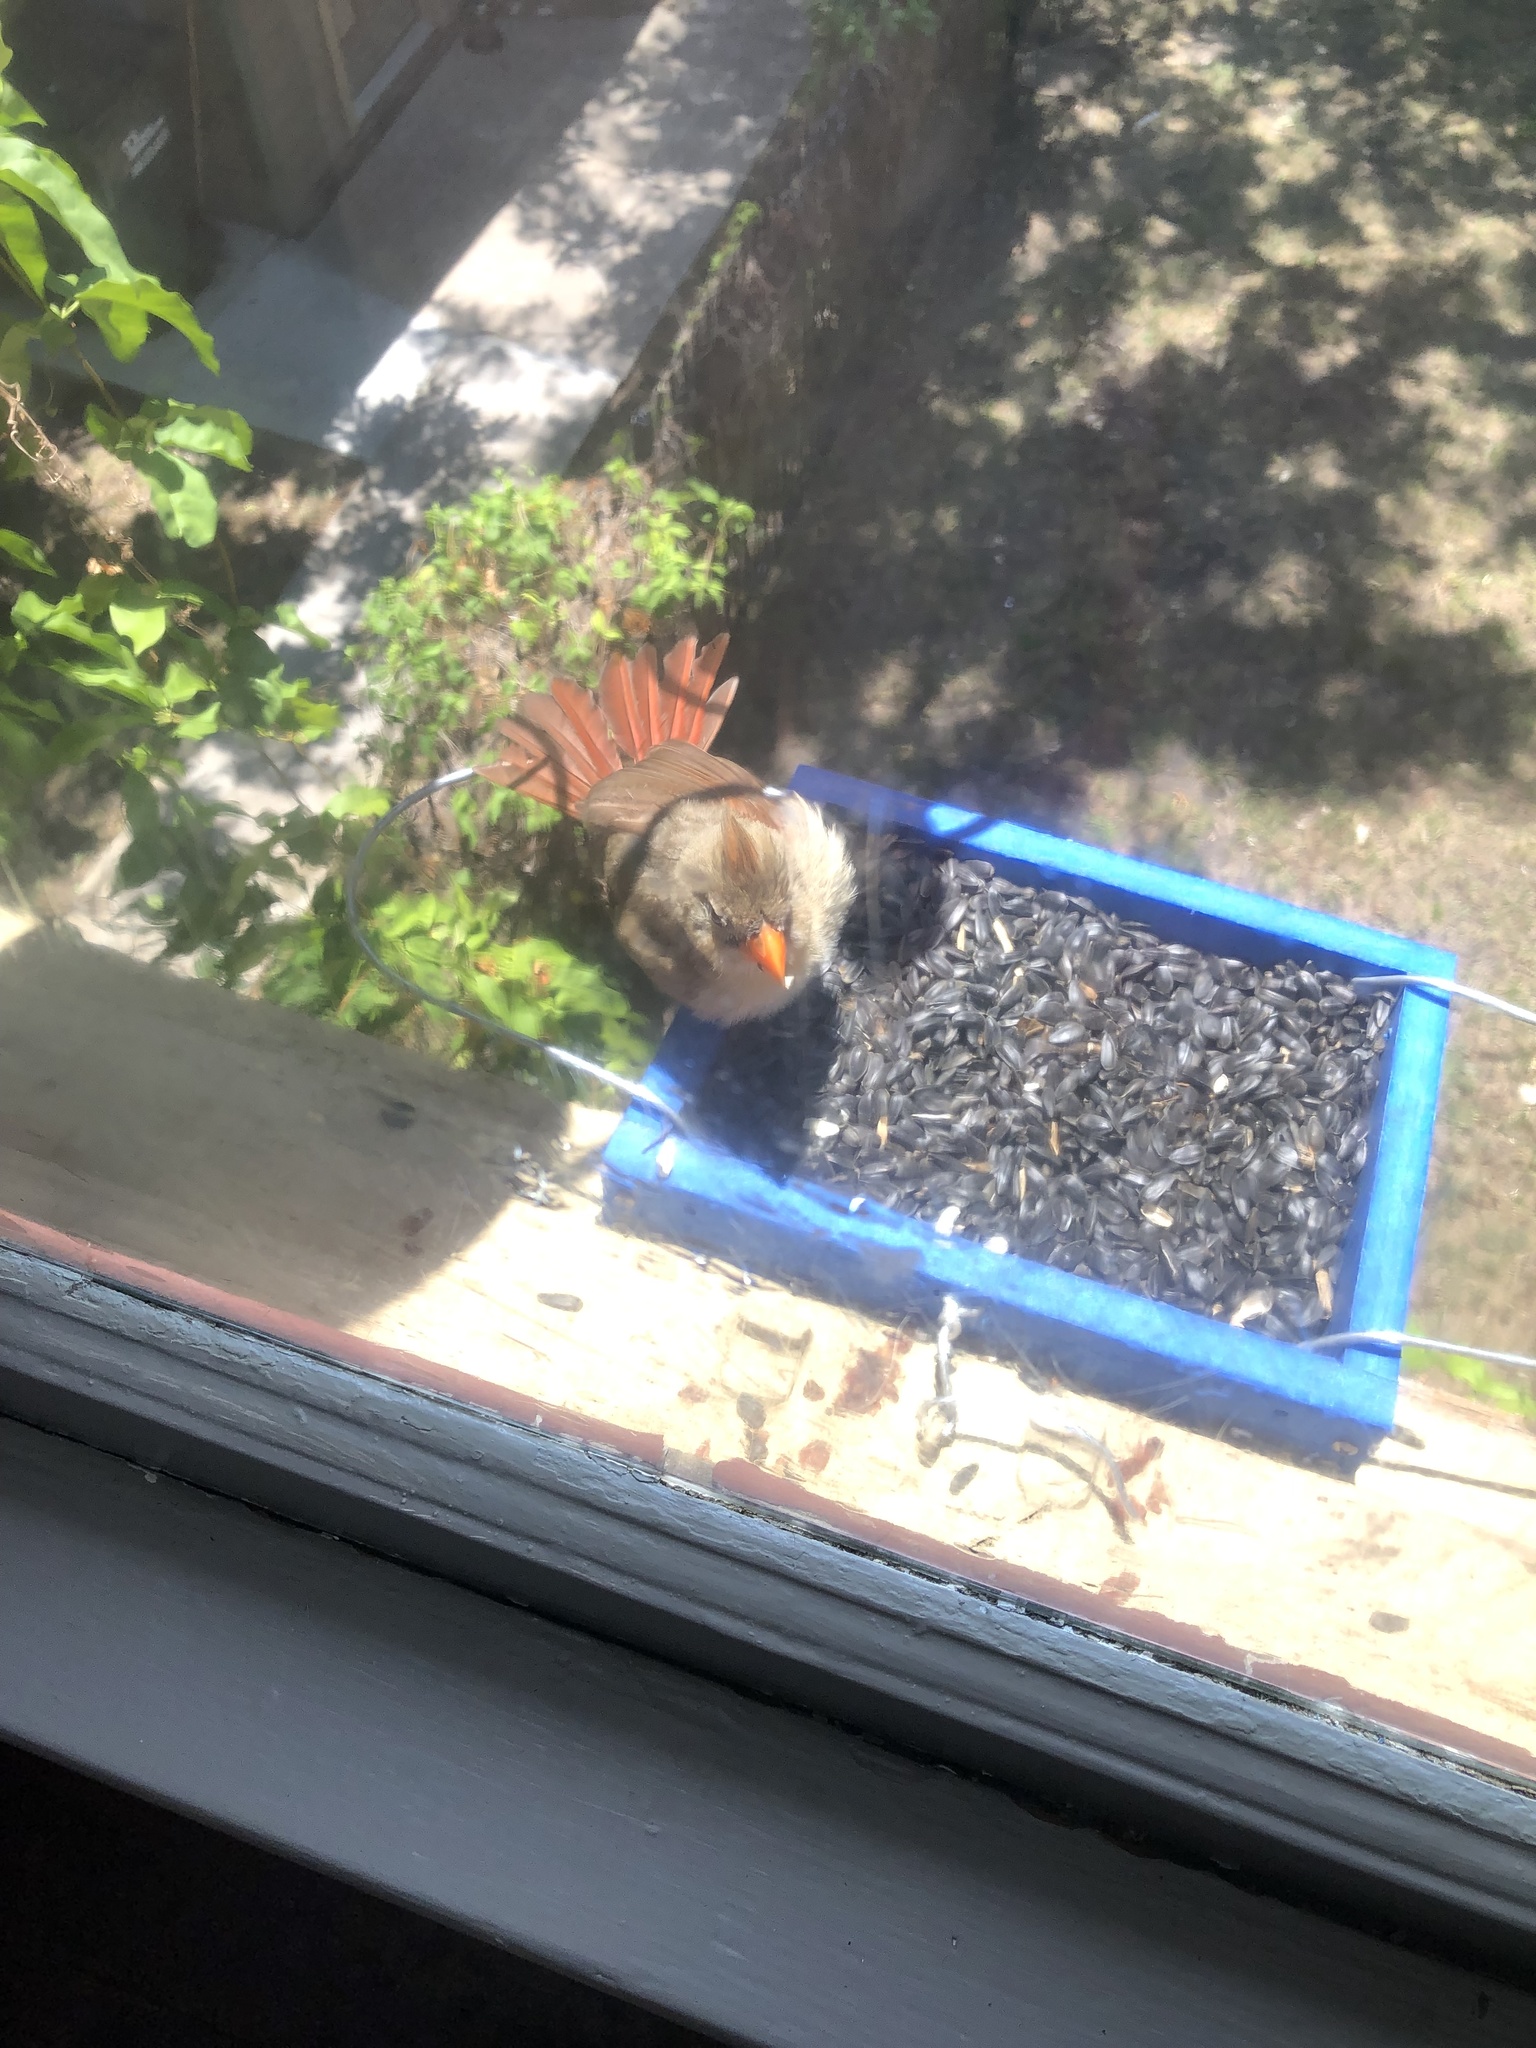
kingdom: Animalia
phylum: Chordata
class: Aves
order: Passeriformes
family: Cardinalidae
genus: Cardinalis
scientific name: Cardinalis cardinalis
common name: Northern cardinal
